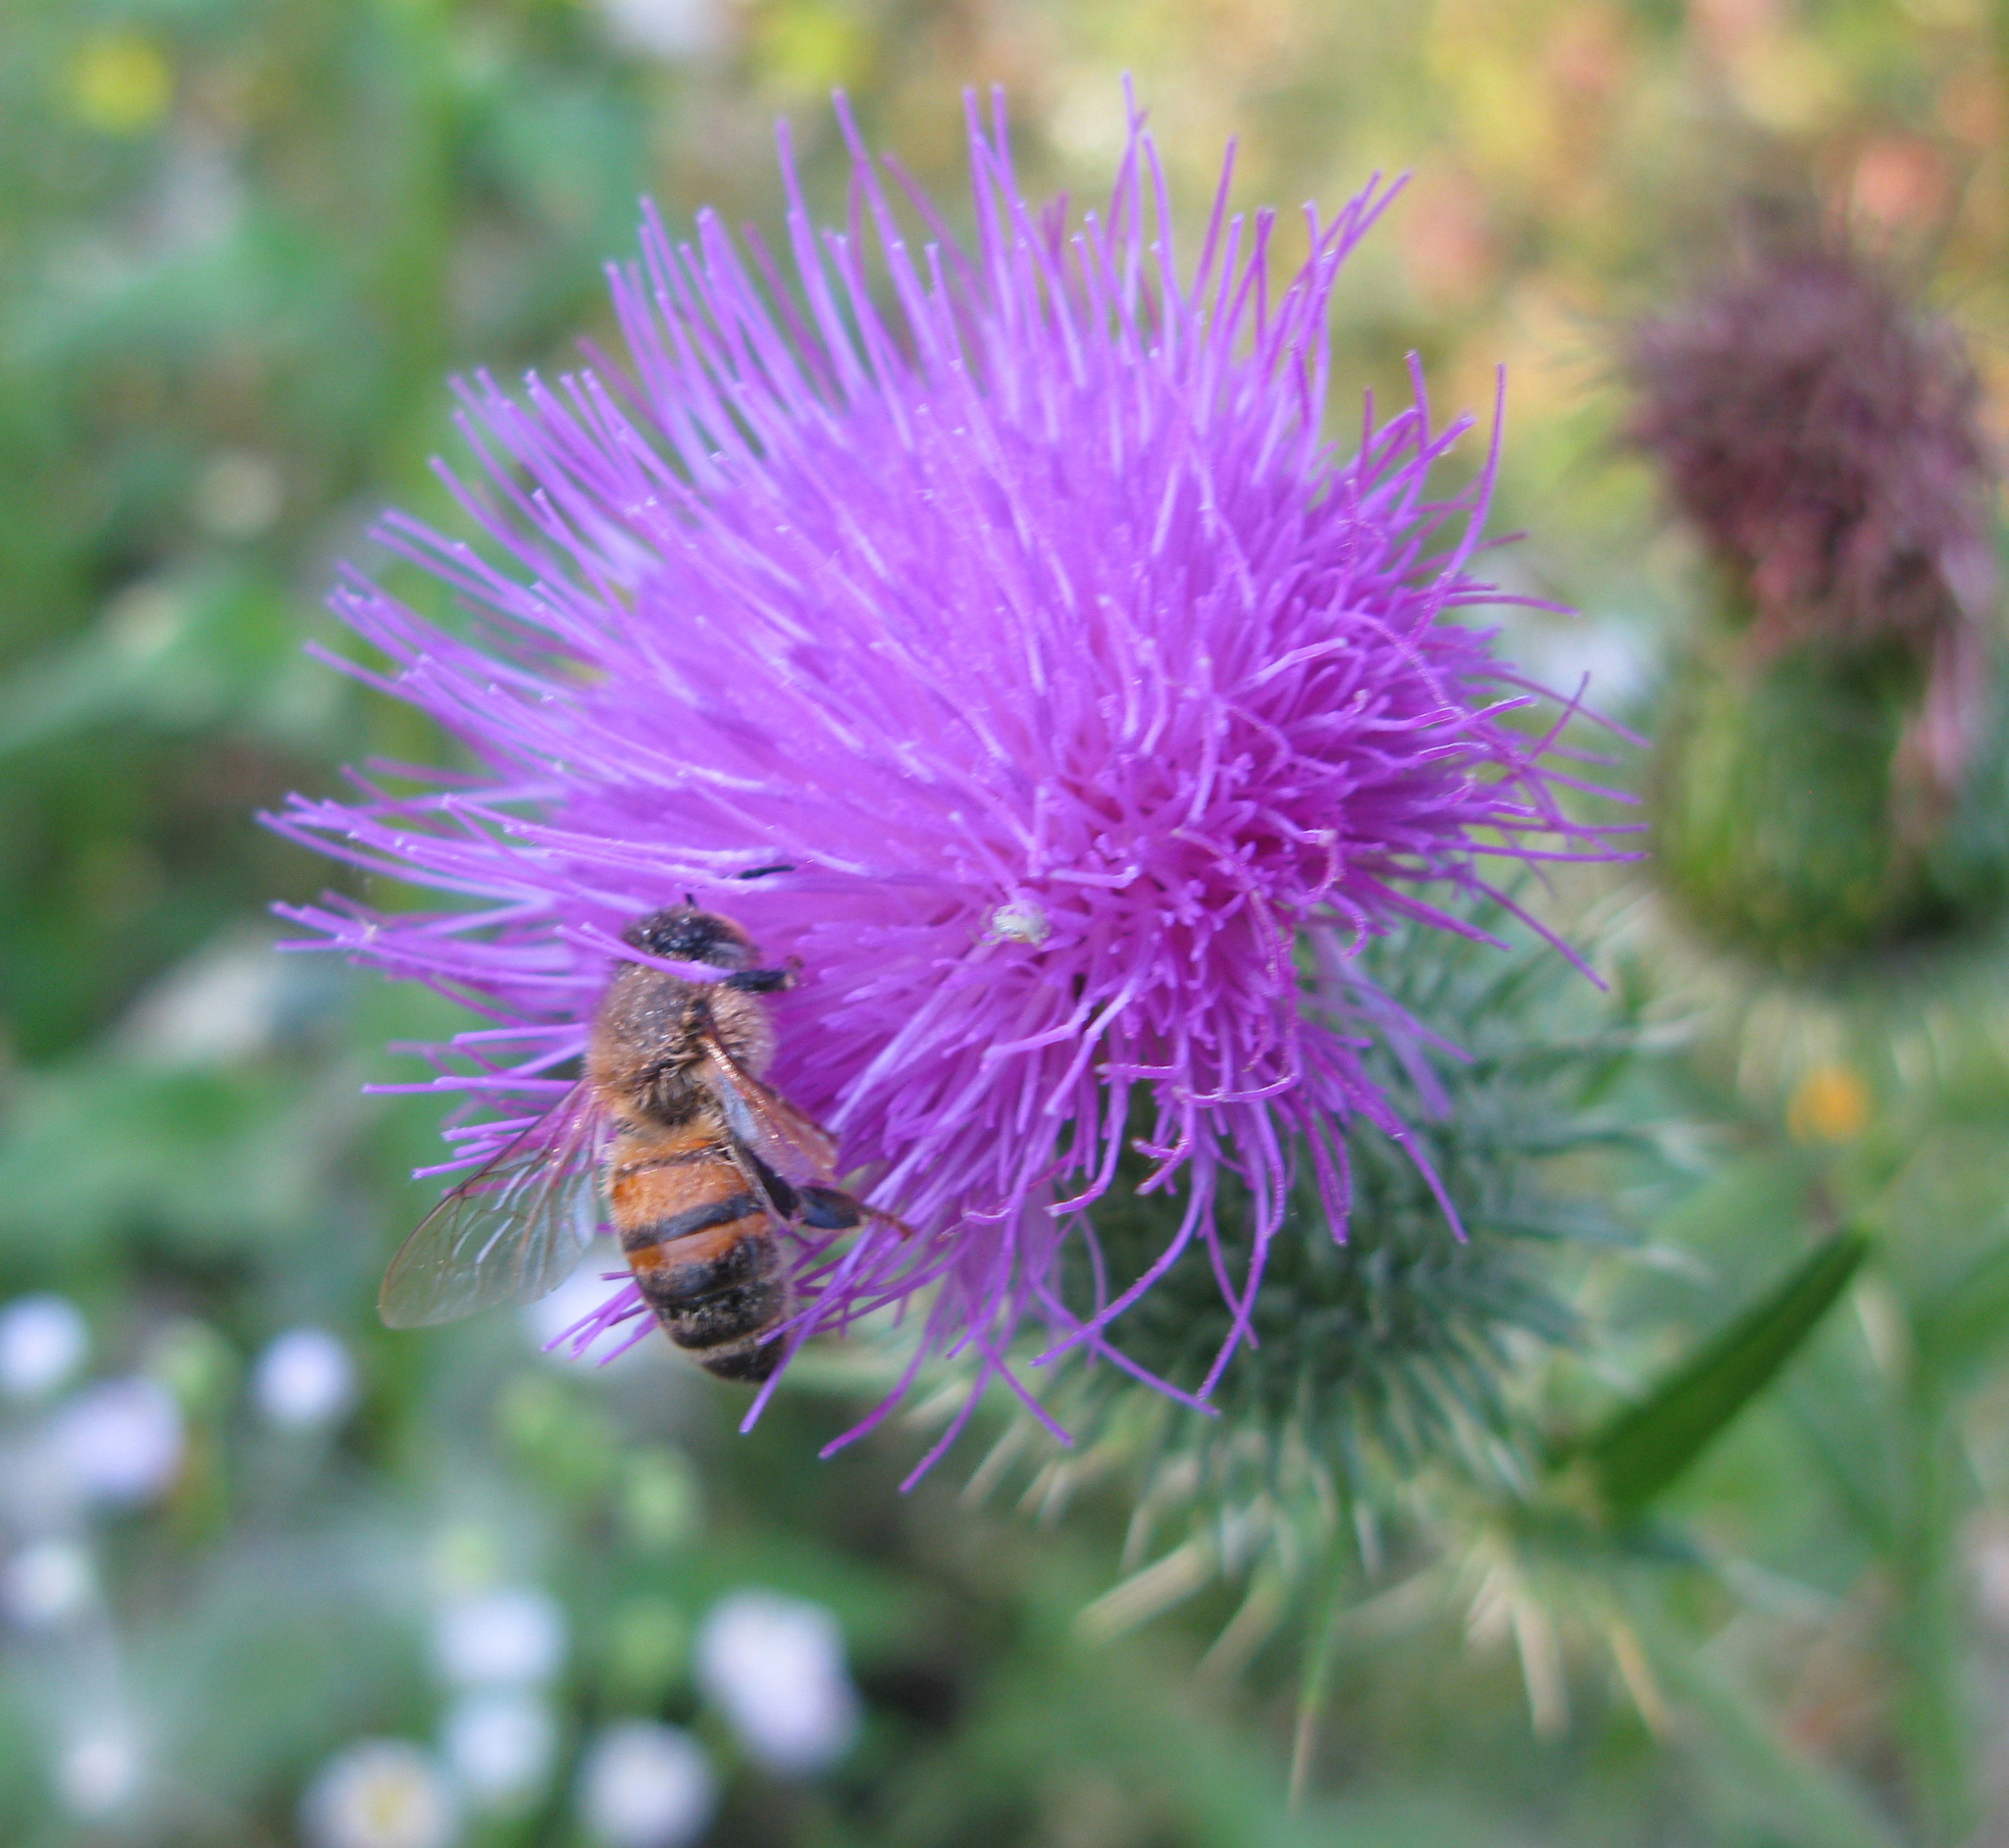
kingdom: Animalia
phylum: Arthropoda
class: Insecta
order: Hymenoptera
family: Apidae
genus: Apis
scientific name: Apis mellifera
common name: Honey bee
